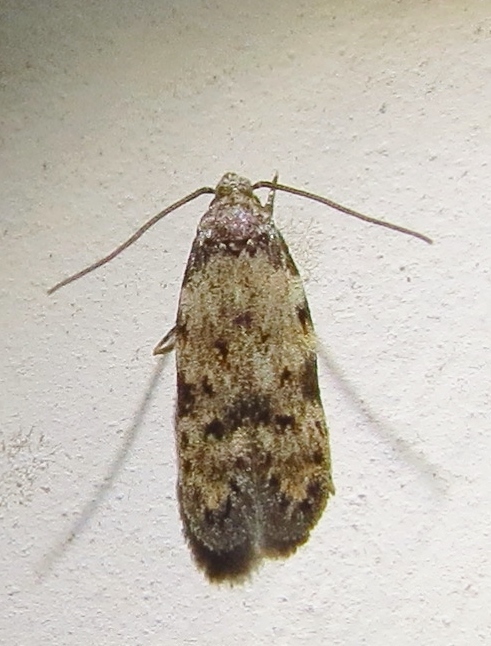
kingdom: Animalia
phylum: Arthropoda
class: Insecta
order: Lepidoptera
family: Autostichidae
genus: Taygete
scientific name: Taygete attributella
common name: Triangle-marked twirler moth
